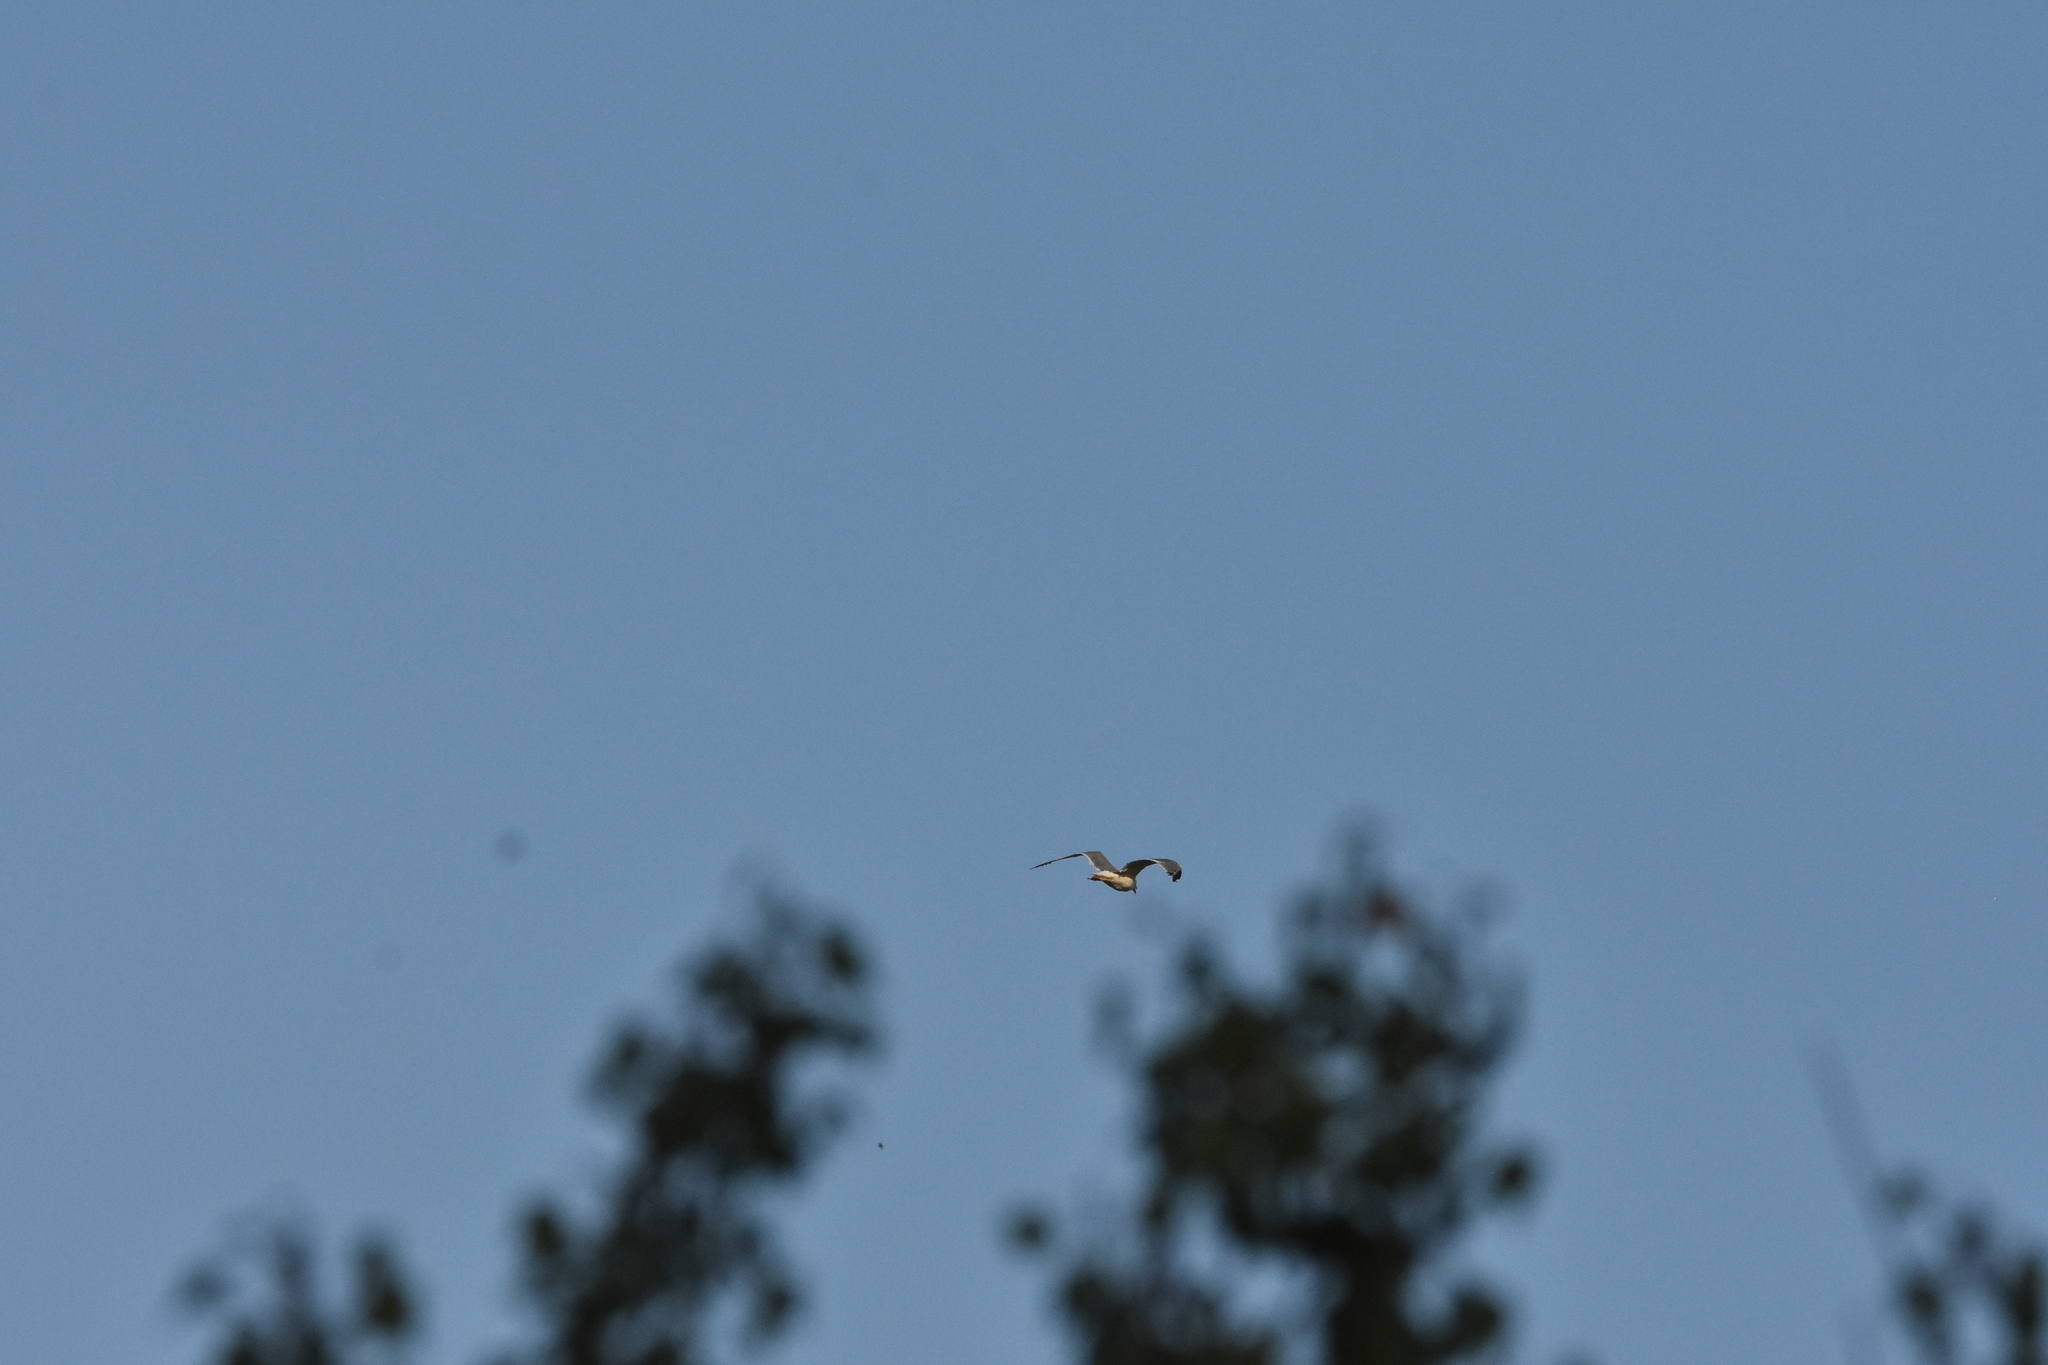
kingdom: Animalia
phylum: Chordata
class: Aves
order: Charadriiformes
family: Laridae
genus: Larus
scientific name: Larus michahellis
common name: Yellow-legged gull
